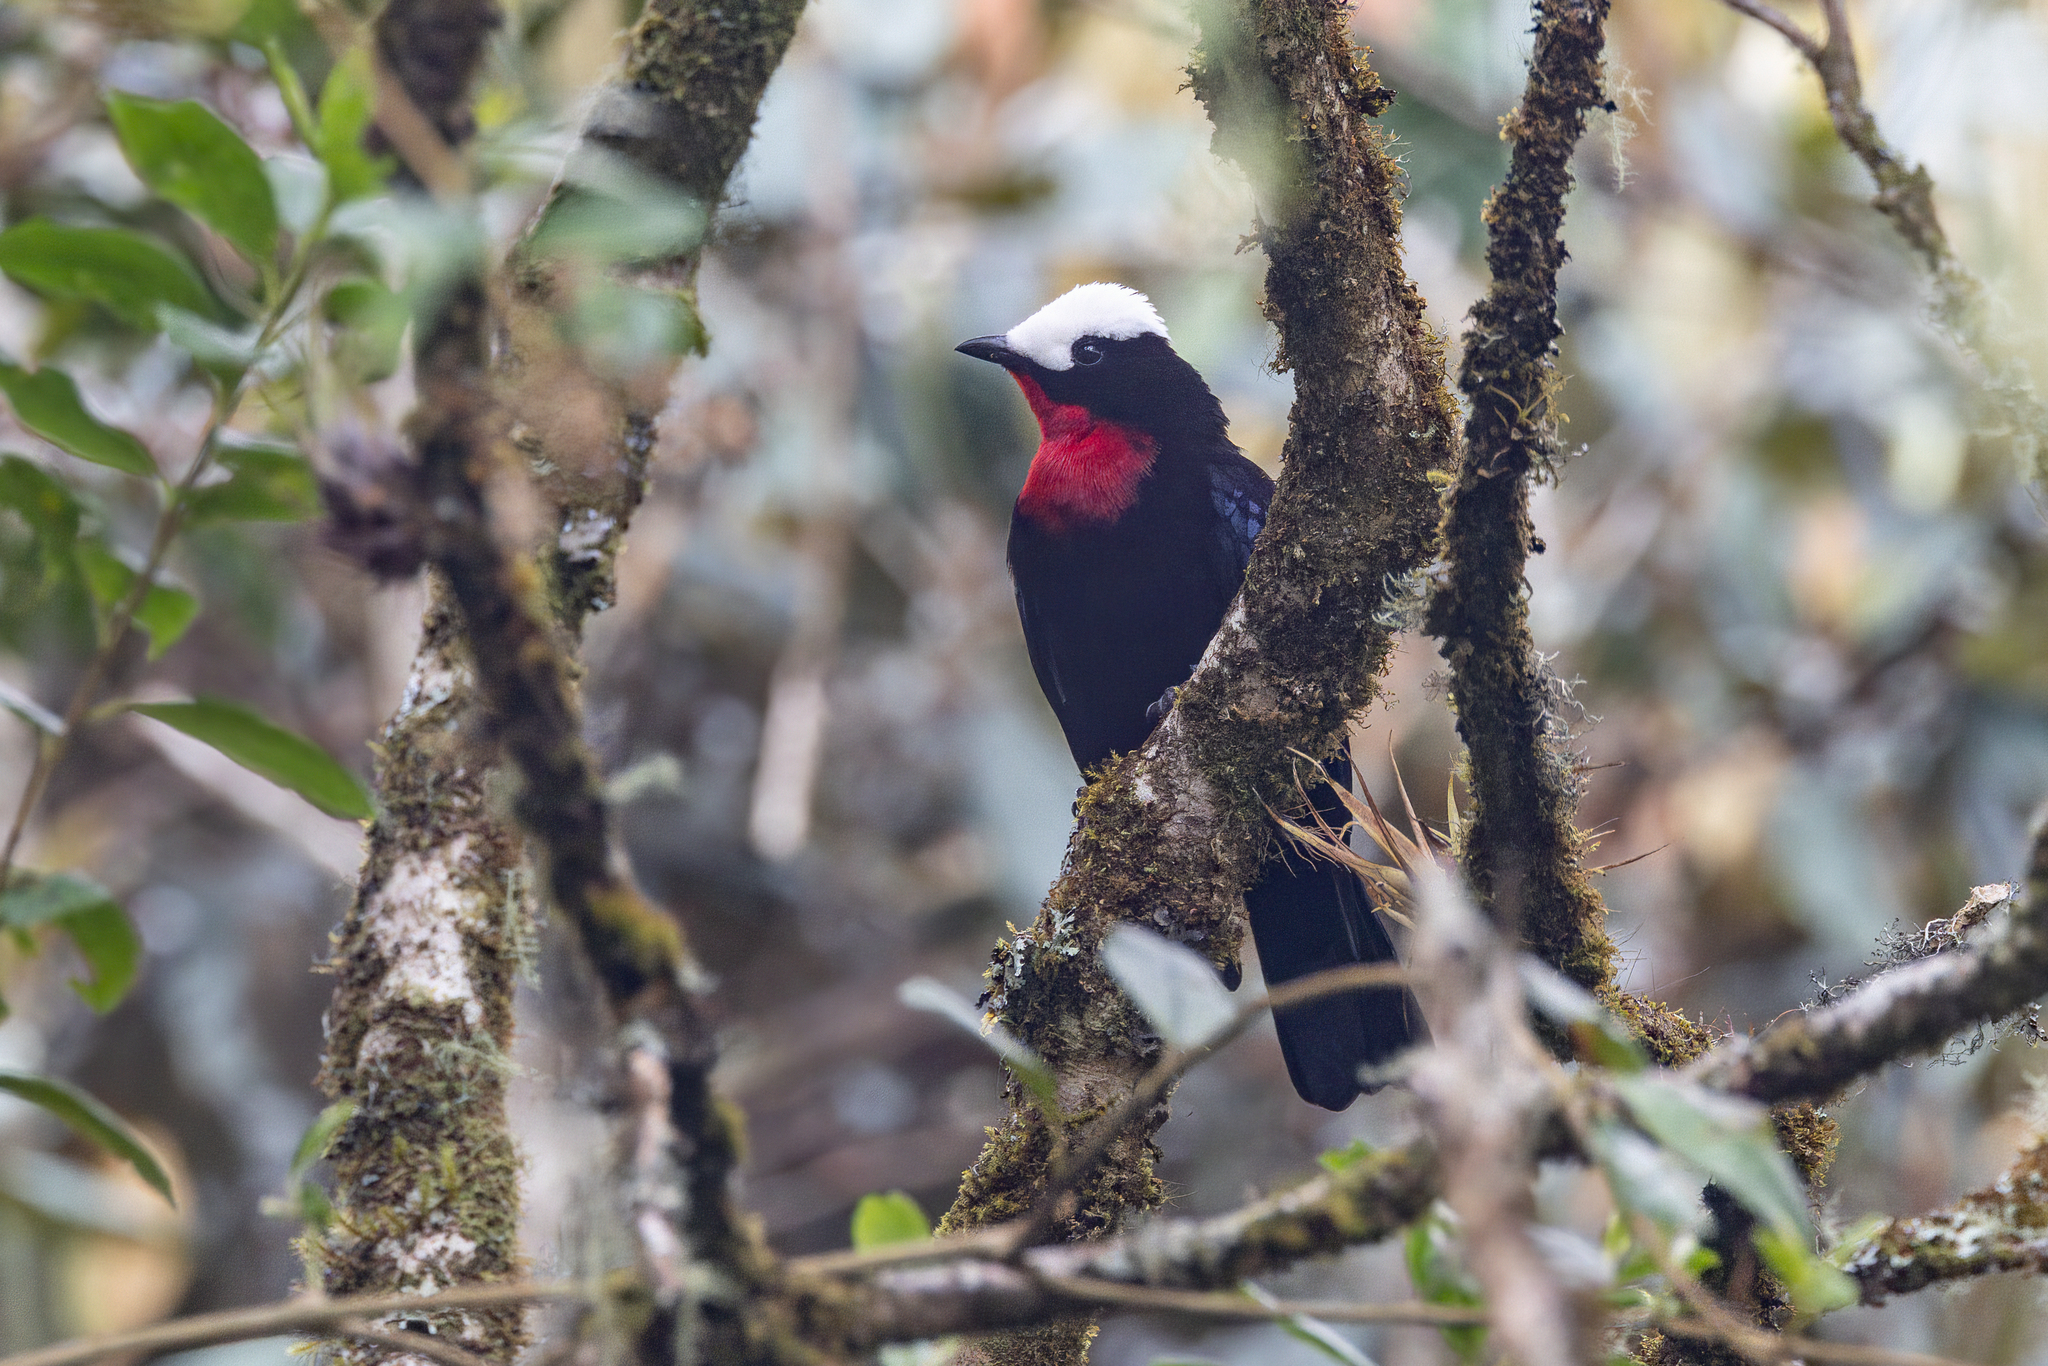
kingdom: Animalia
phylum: Chordata
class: Aves
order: Passeriformes
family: Thraupidae
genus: Sericossypha
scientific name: Sericossypha albocristata
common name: White-capped tanager
